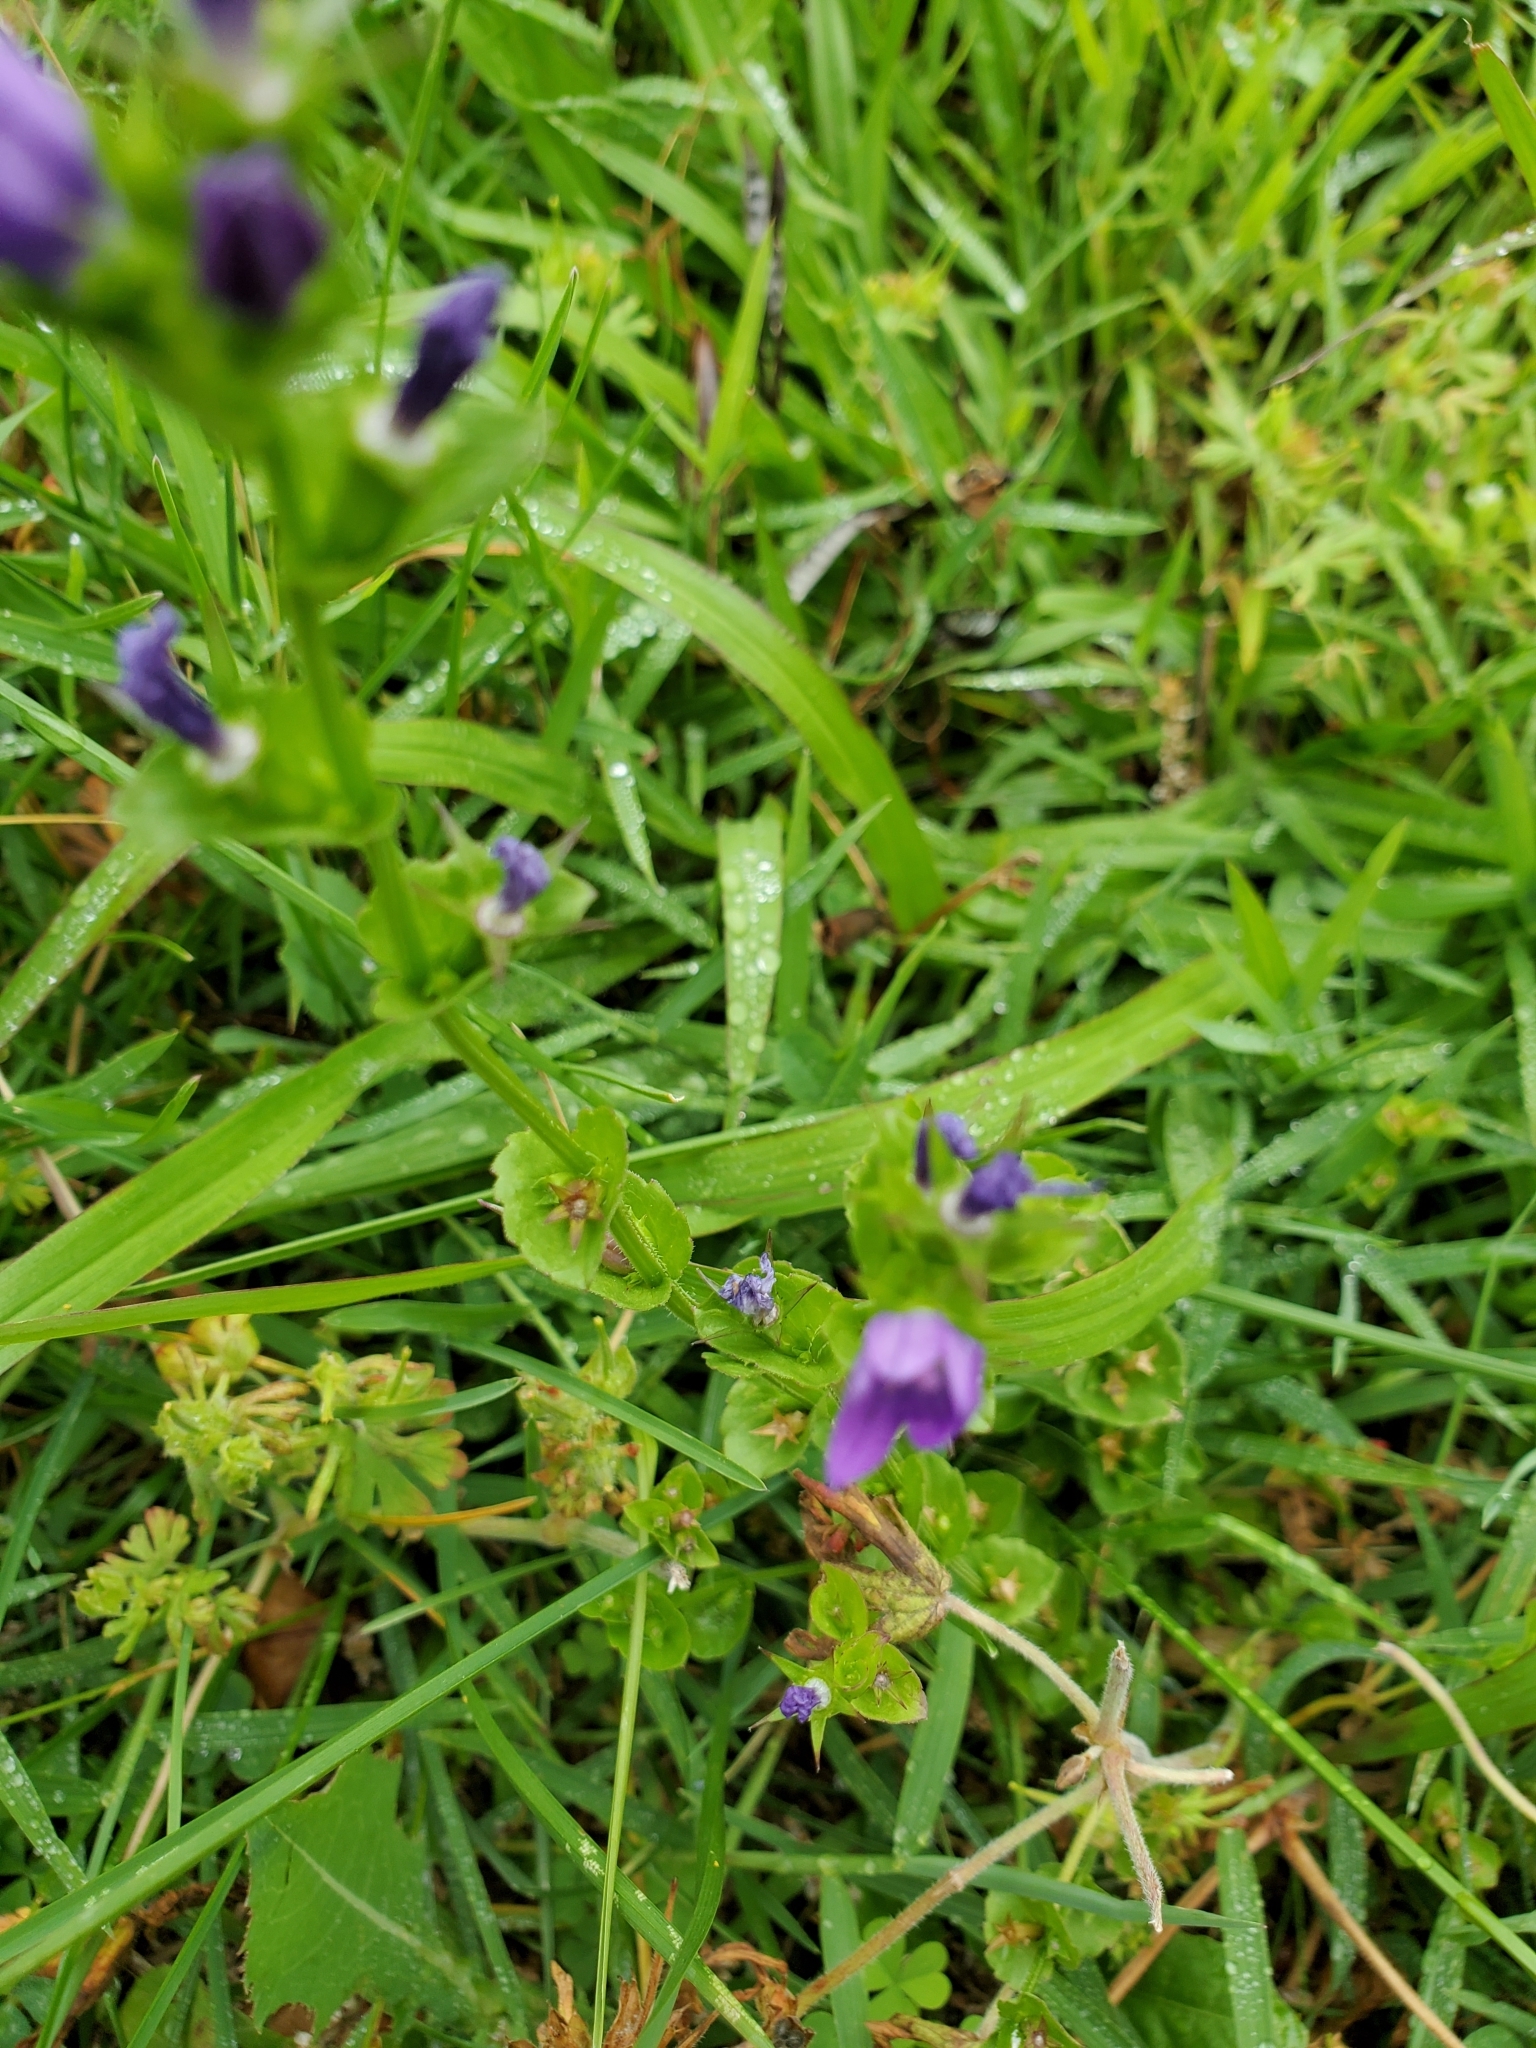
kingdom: Plantae
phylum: Tracheophyta
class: Magnoliopsida
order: Asterales
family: Campanulaceae
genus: Triodanis
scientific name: Triodanis perfoliata
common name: Clasping venus' looking-glass
